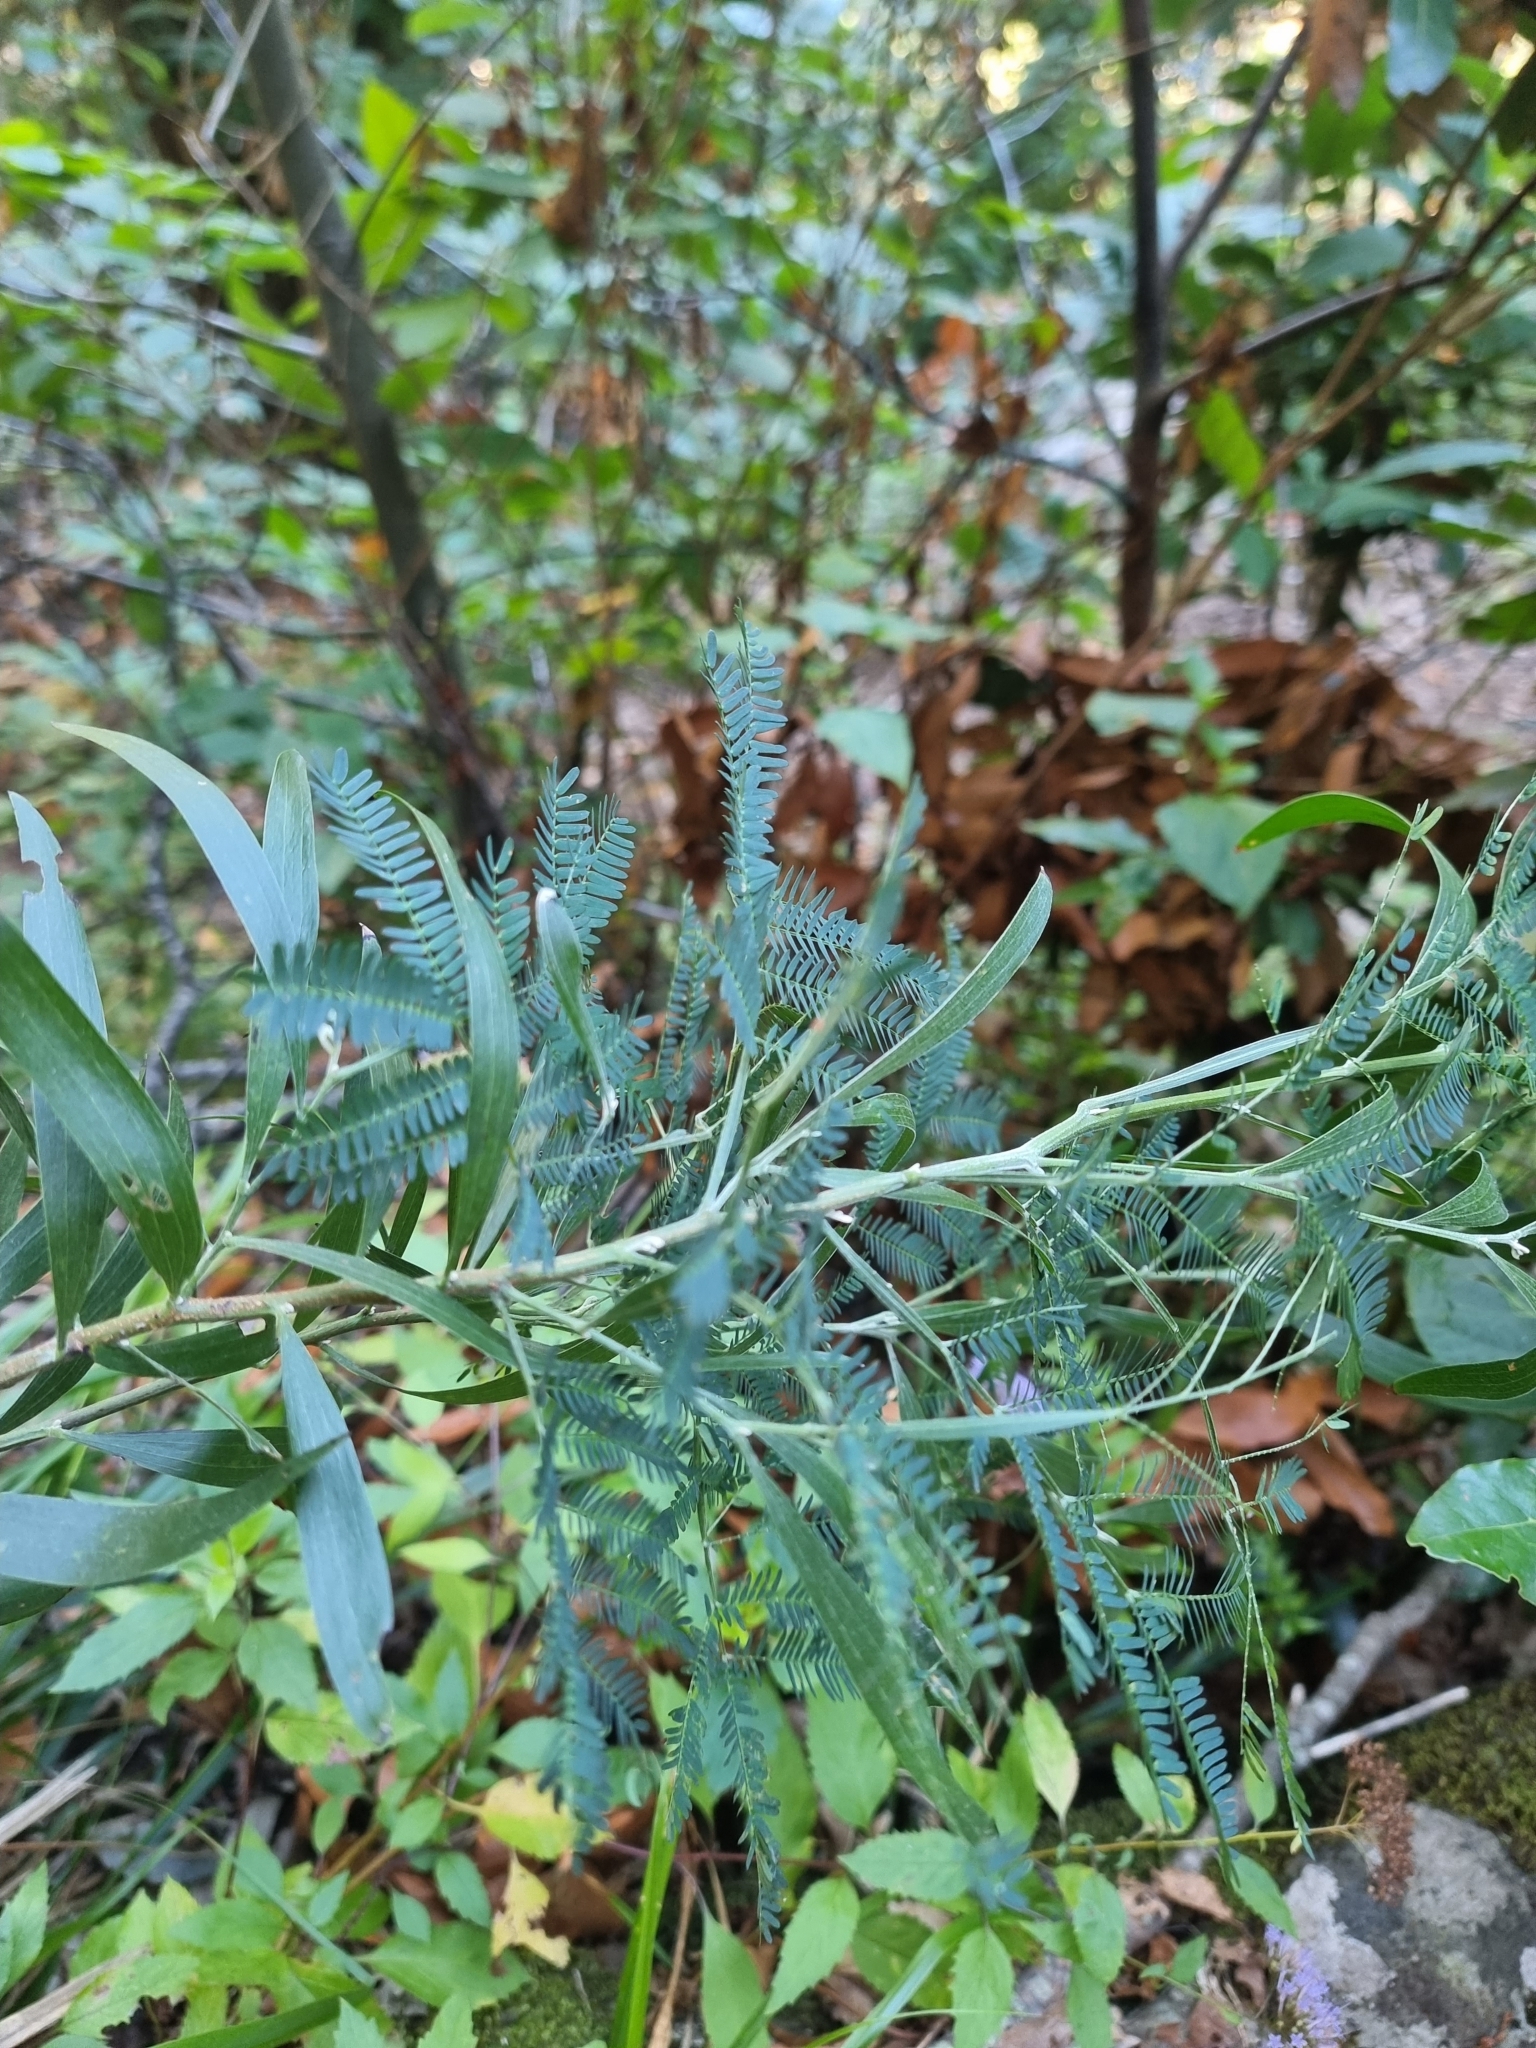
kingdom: Plantae
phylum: Tracheophyta
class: Magnoliopsida
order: Fabales
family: Fabaceae
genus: Acacia
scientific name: Acacia melanoxylon
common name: Blackwood
